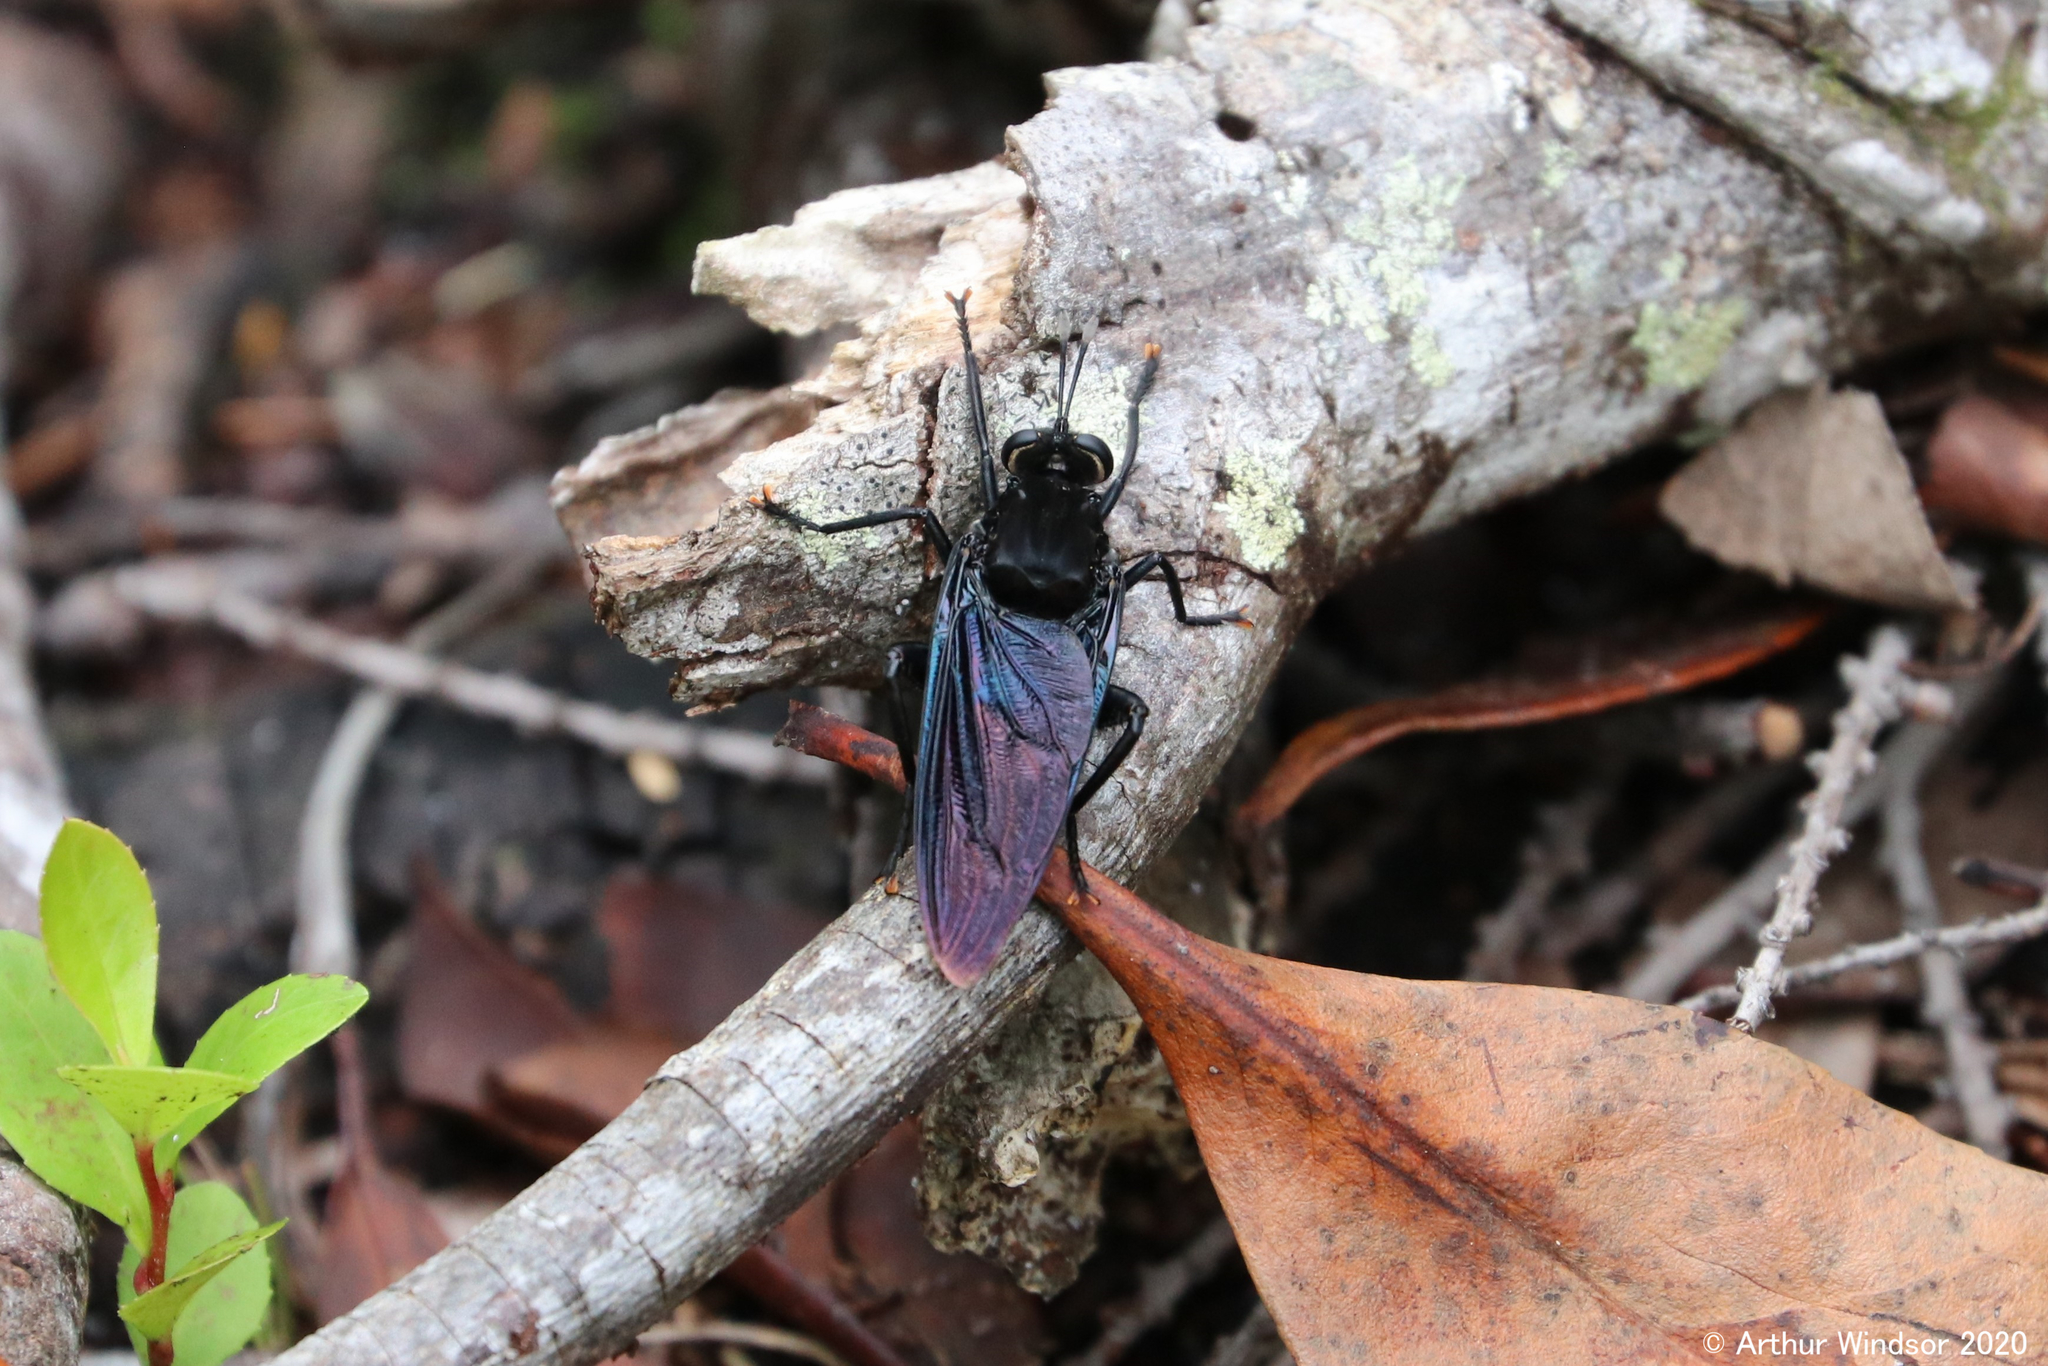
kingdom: Animalia
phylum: Arthropoda
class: Insecta
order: Diptera
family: Mydidae
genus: Mydas
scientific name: Mydas clavatus
